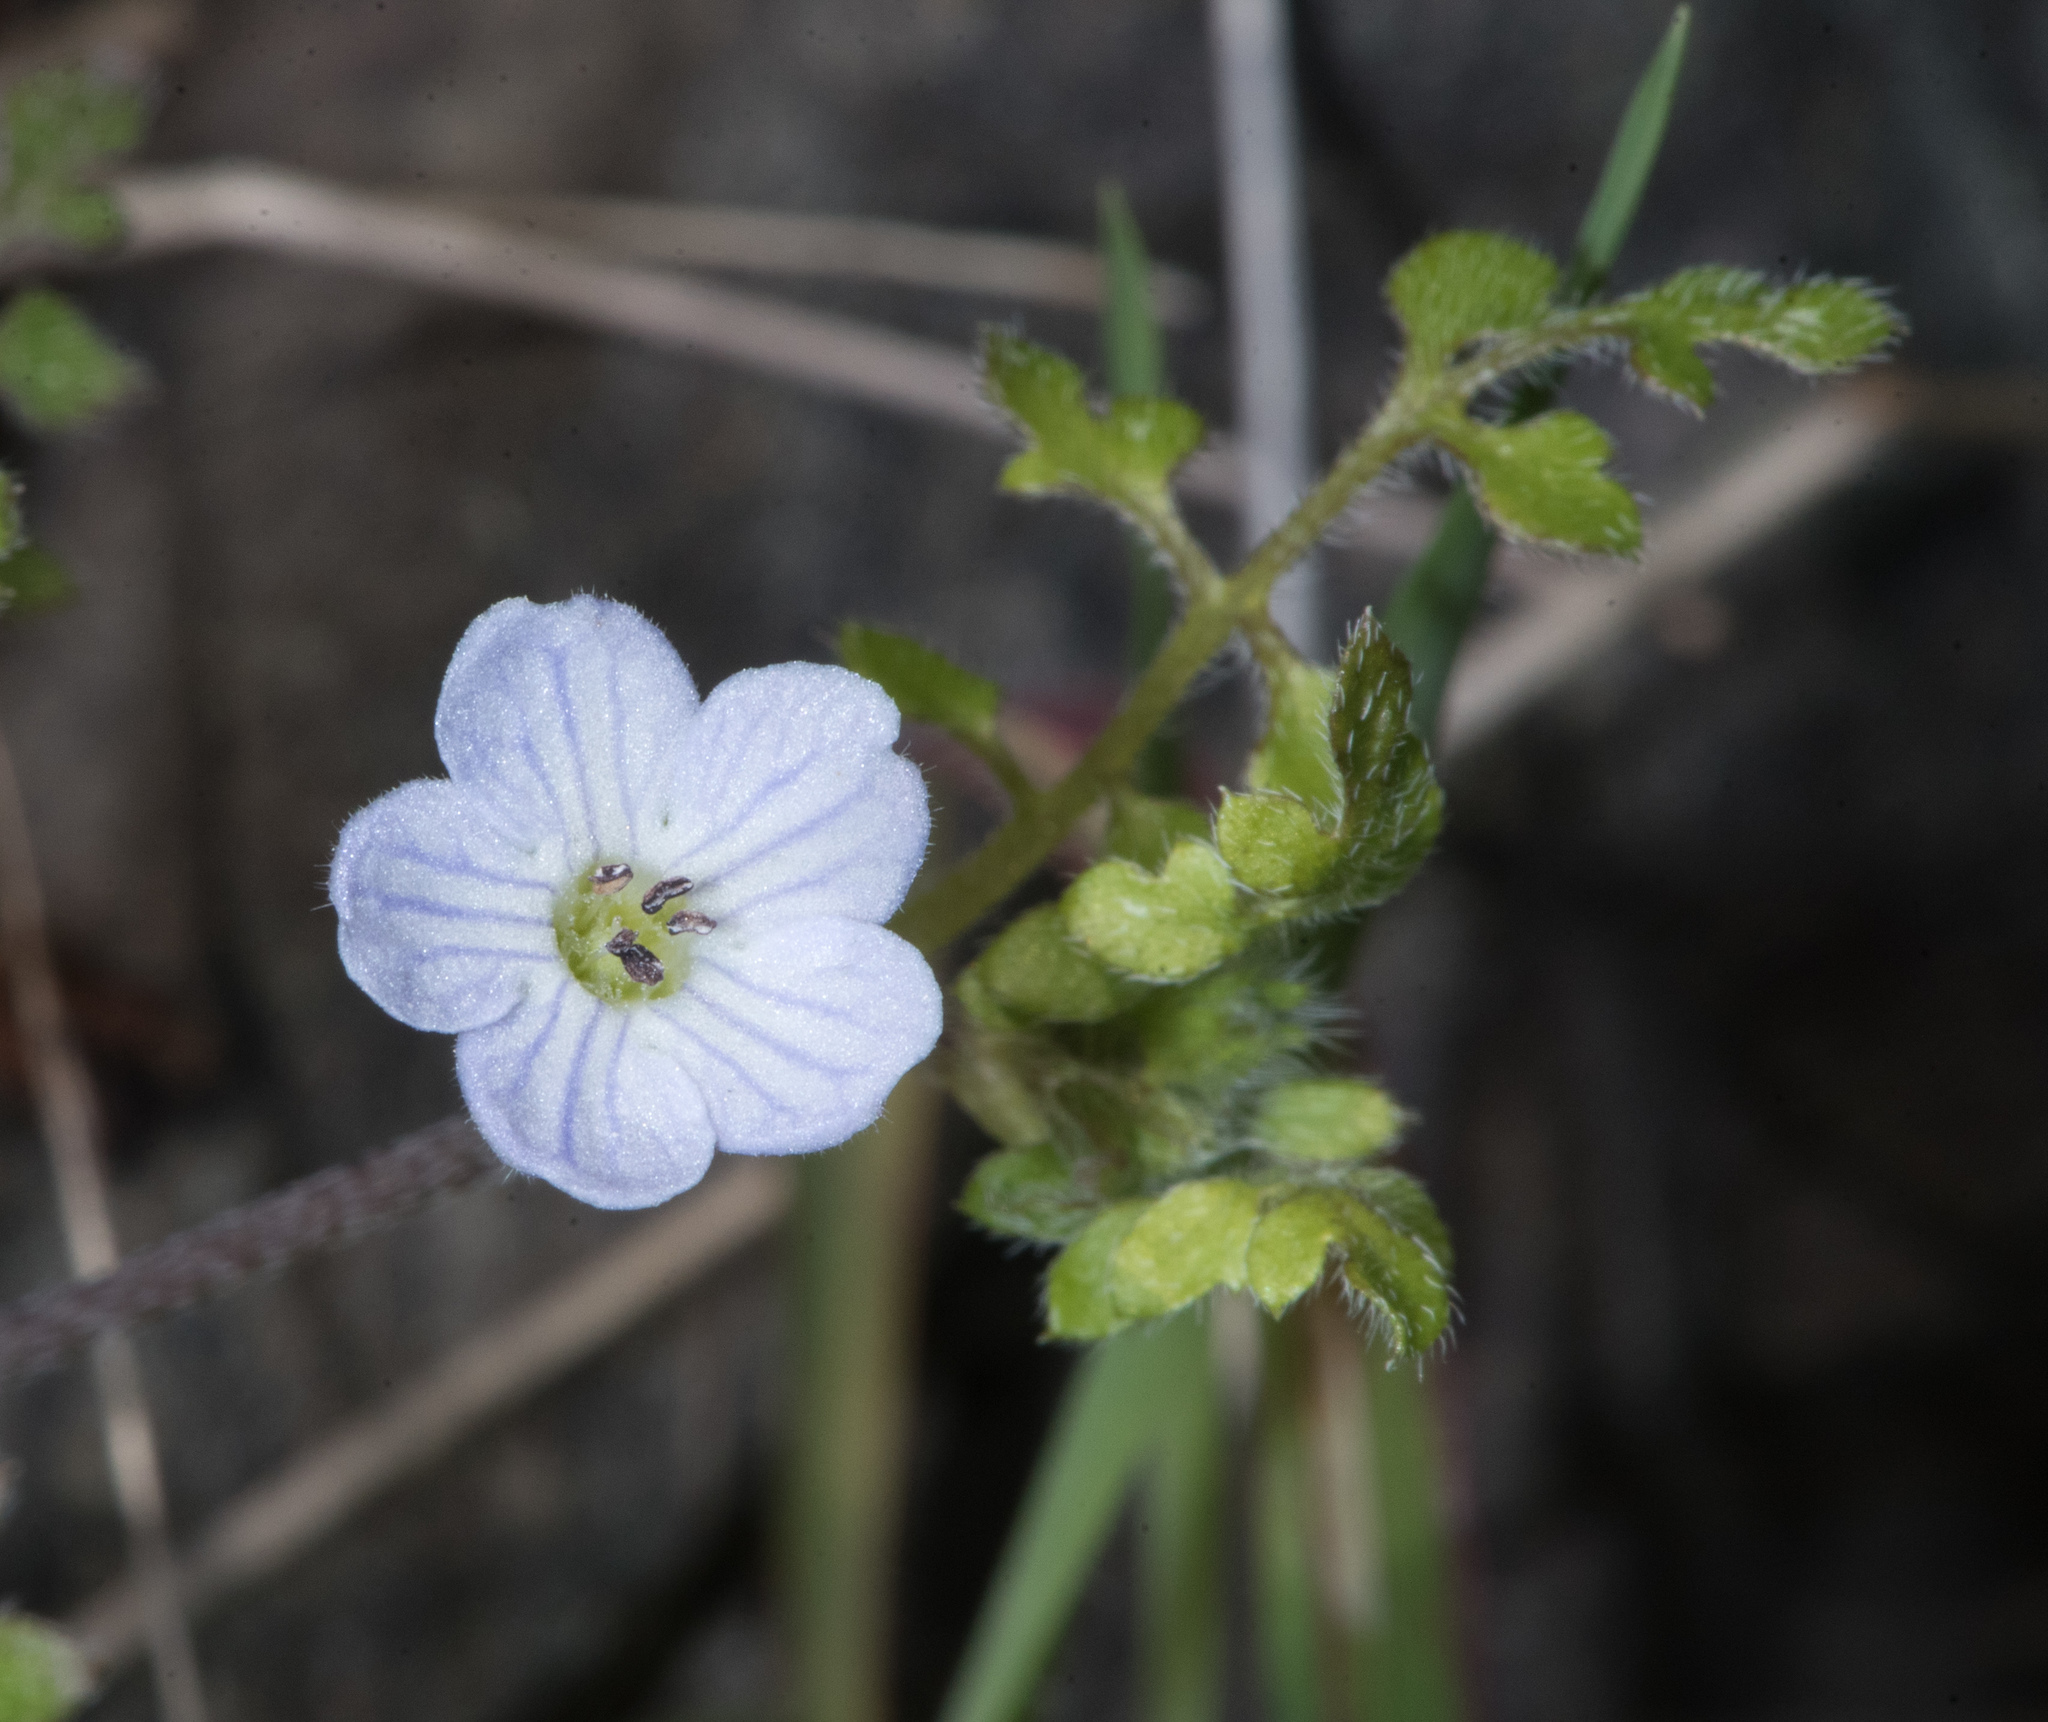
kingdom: Plantae
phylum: Tracheophyta
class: Magnoliopsida
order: Boraginales
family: Hydrophyllaceae
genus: Nemophila
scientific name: Nemophila pedunculata
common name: Little-foot baby-blue-eyes
